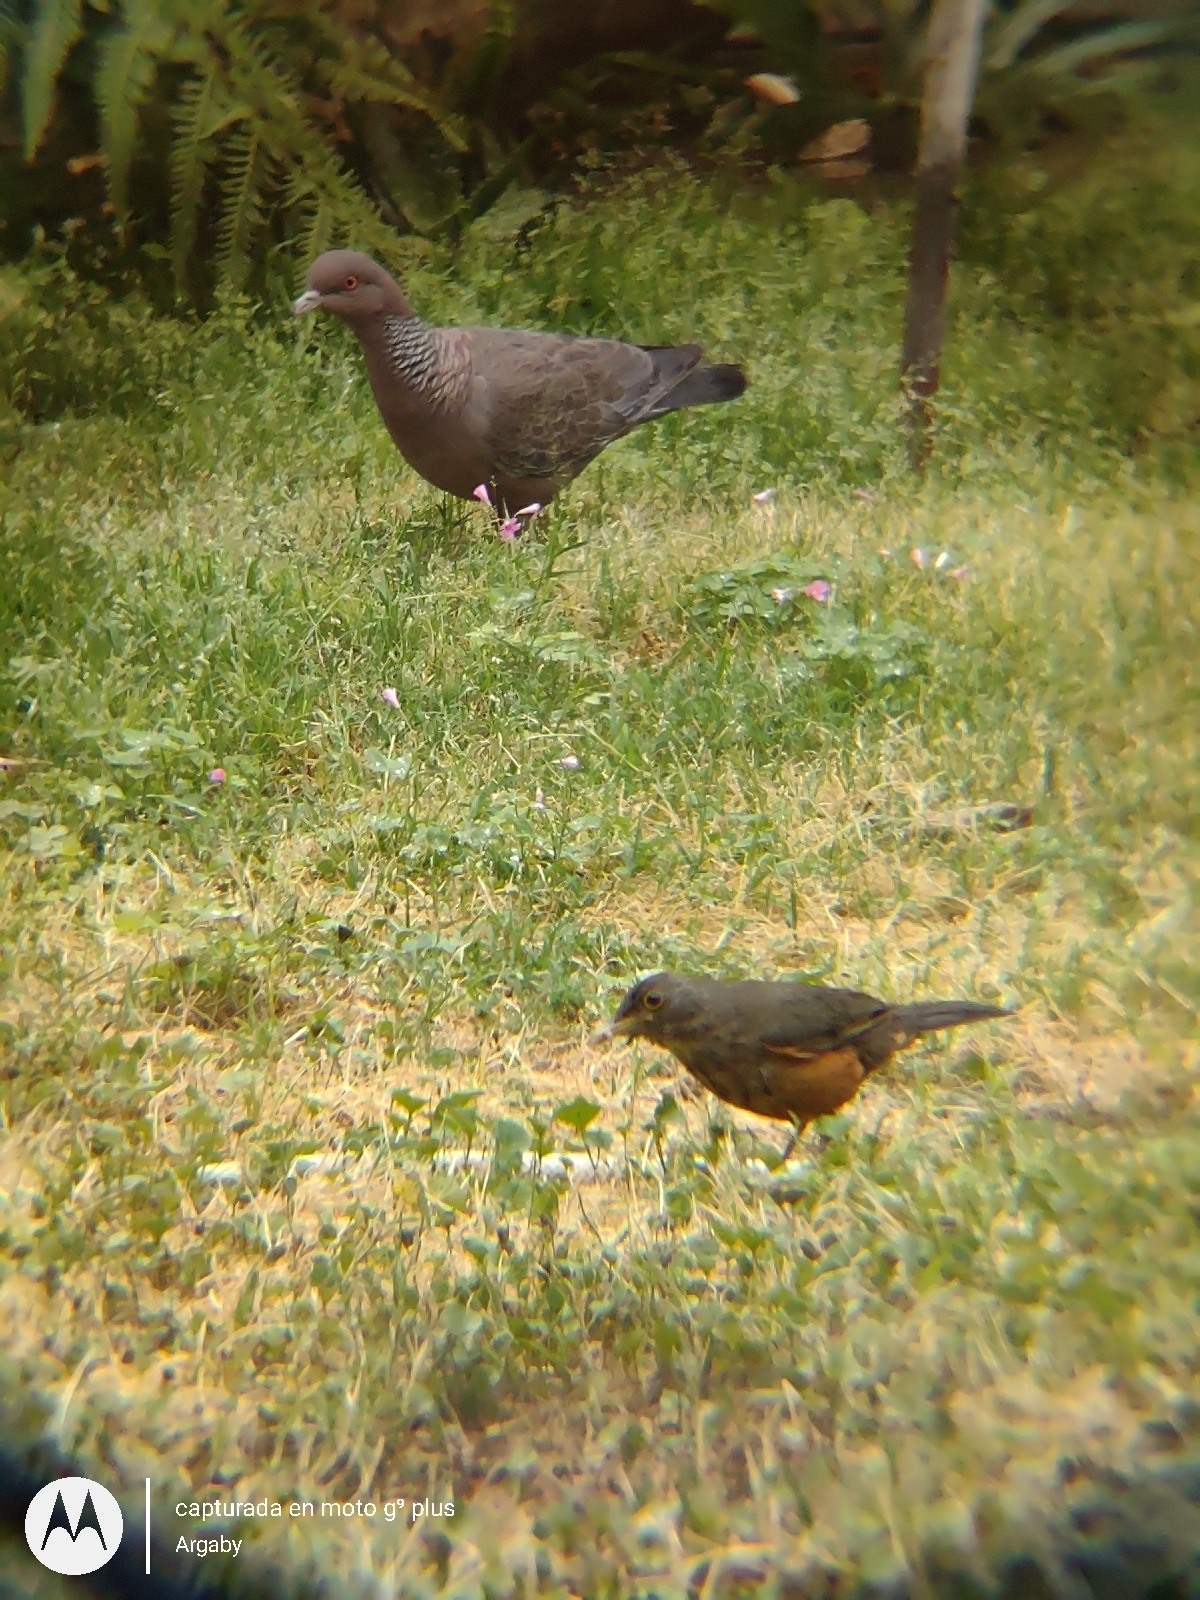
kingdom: Animalia
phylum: Chordata
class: Aves
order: Columbiformes
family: Columbidae
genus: Patagioenas
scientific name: Patagioenas picazuro
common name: Picazuro pigeon
